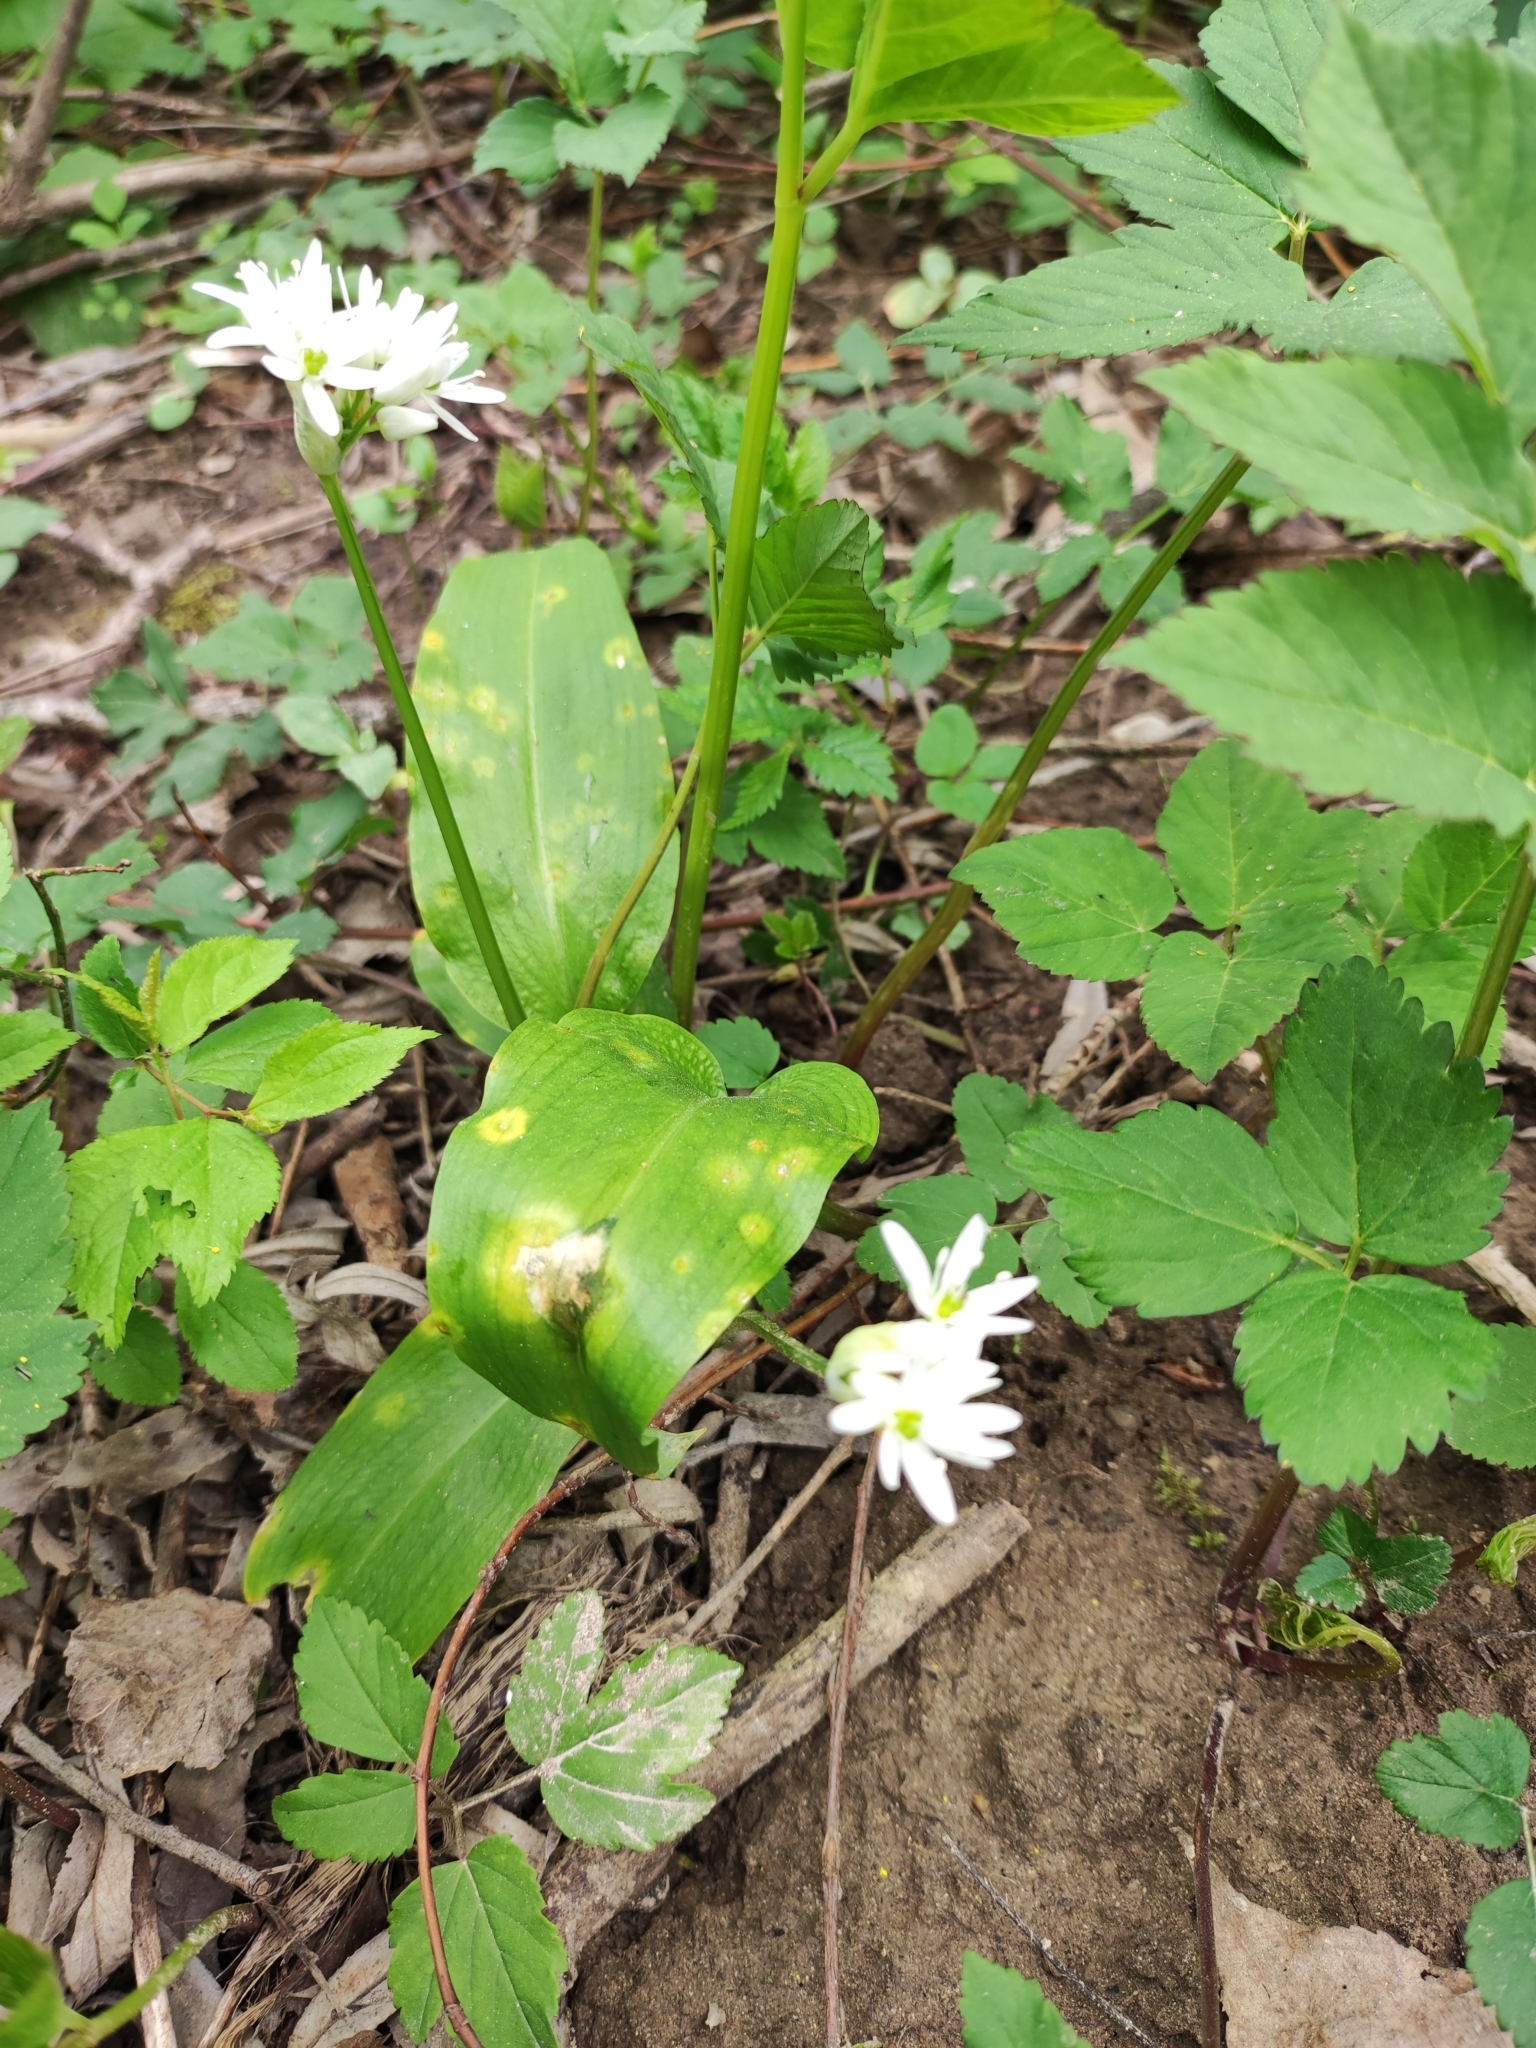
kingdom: Plantae
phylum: Tracheophyta
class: Liliopsida
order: Asparagales
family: Amaryllidaceae
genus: Allium
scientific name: Allium ursinum
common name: Ramsons
